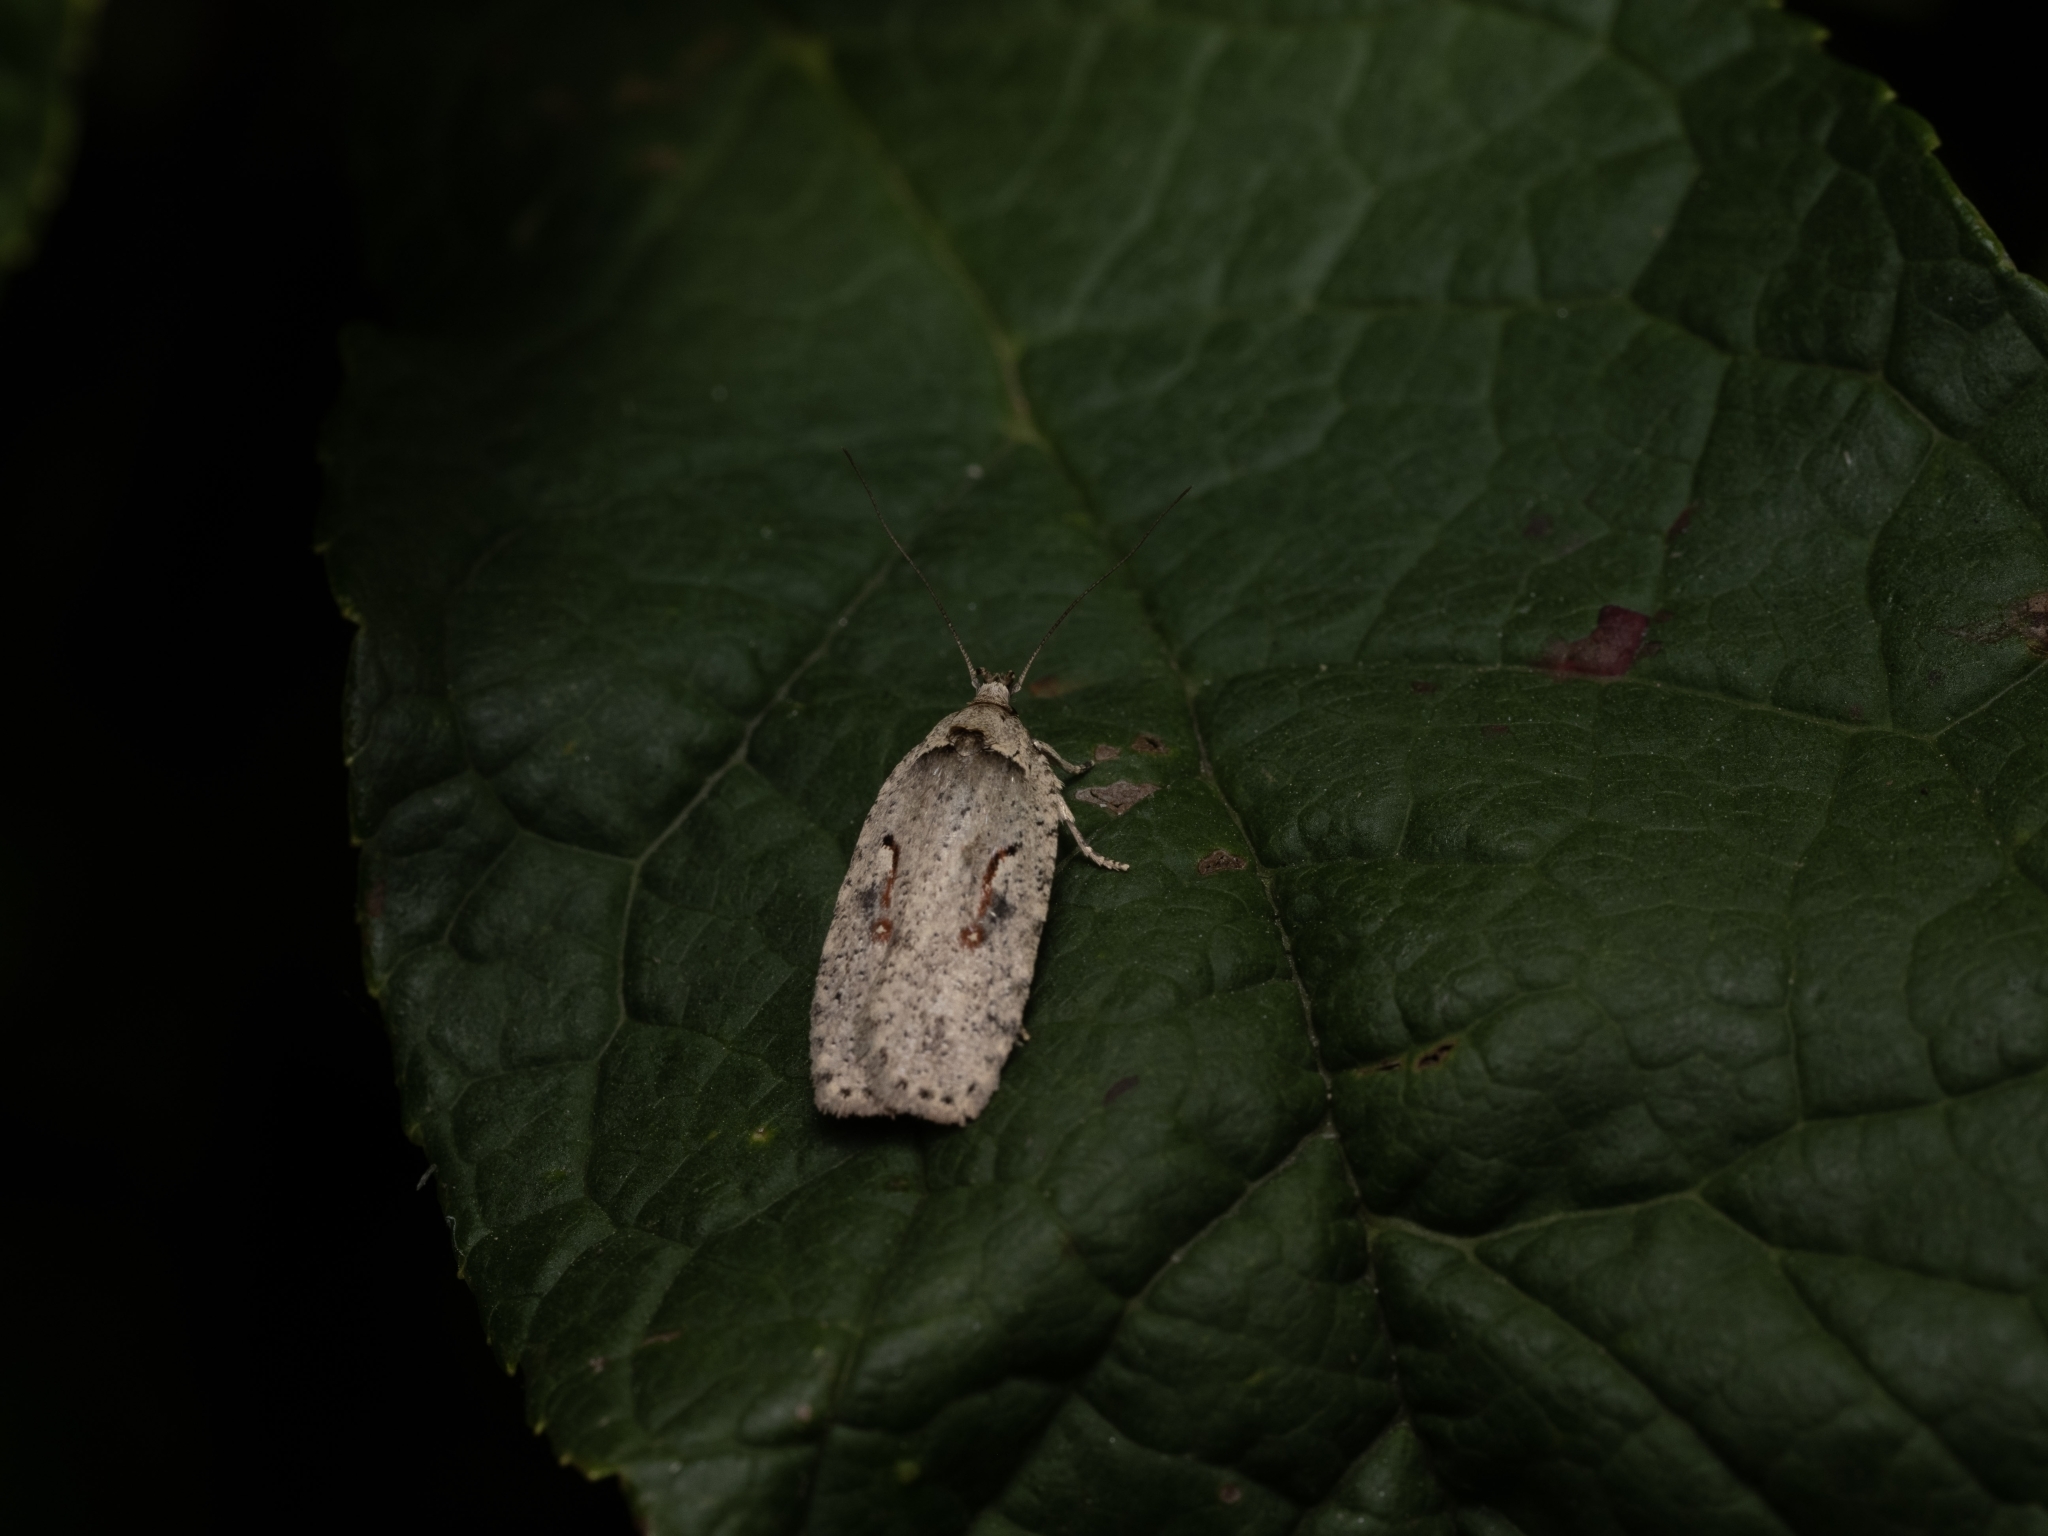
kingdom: Animalia
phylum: Arthropoda
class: Insecta
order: Lepidoptera
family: Depressariidae
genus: Agonopterix
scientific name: Agonopterix ocellana
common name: Red-letter flat-body
